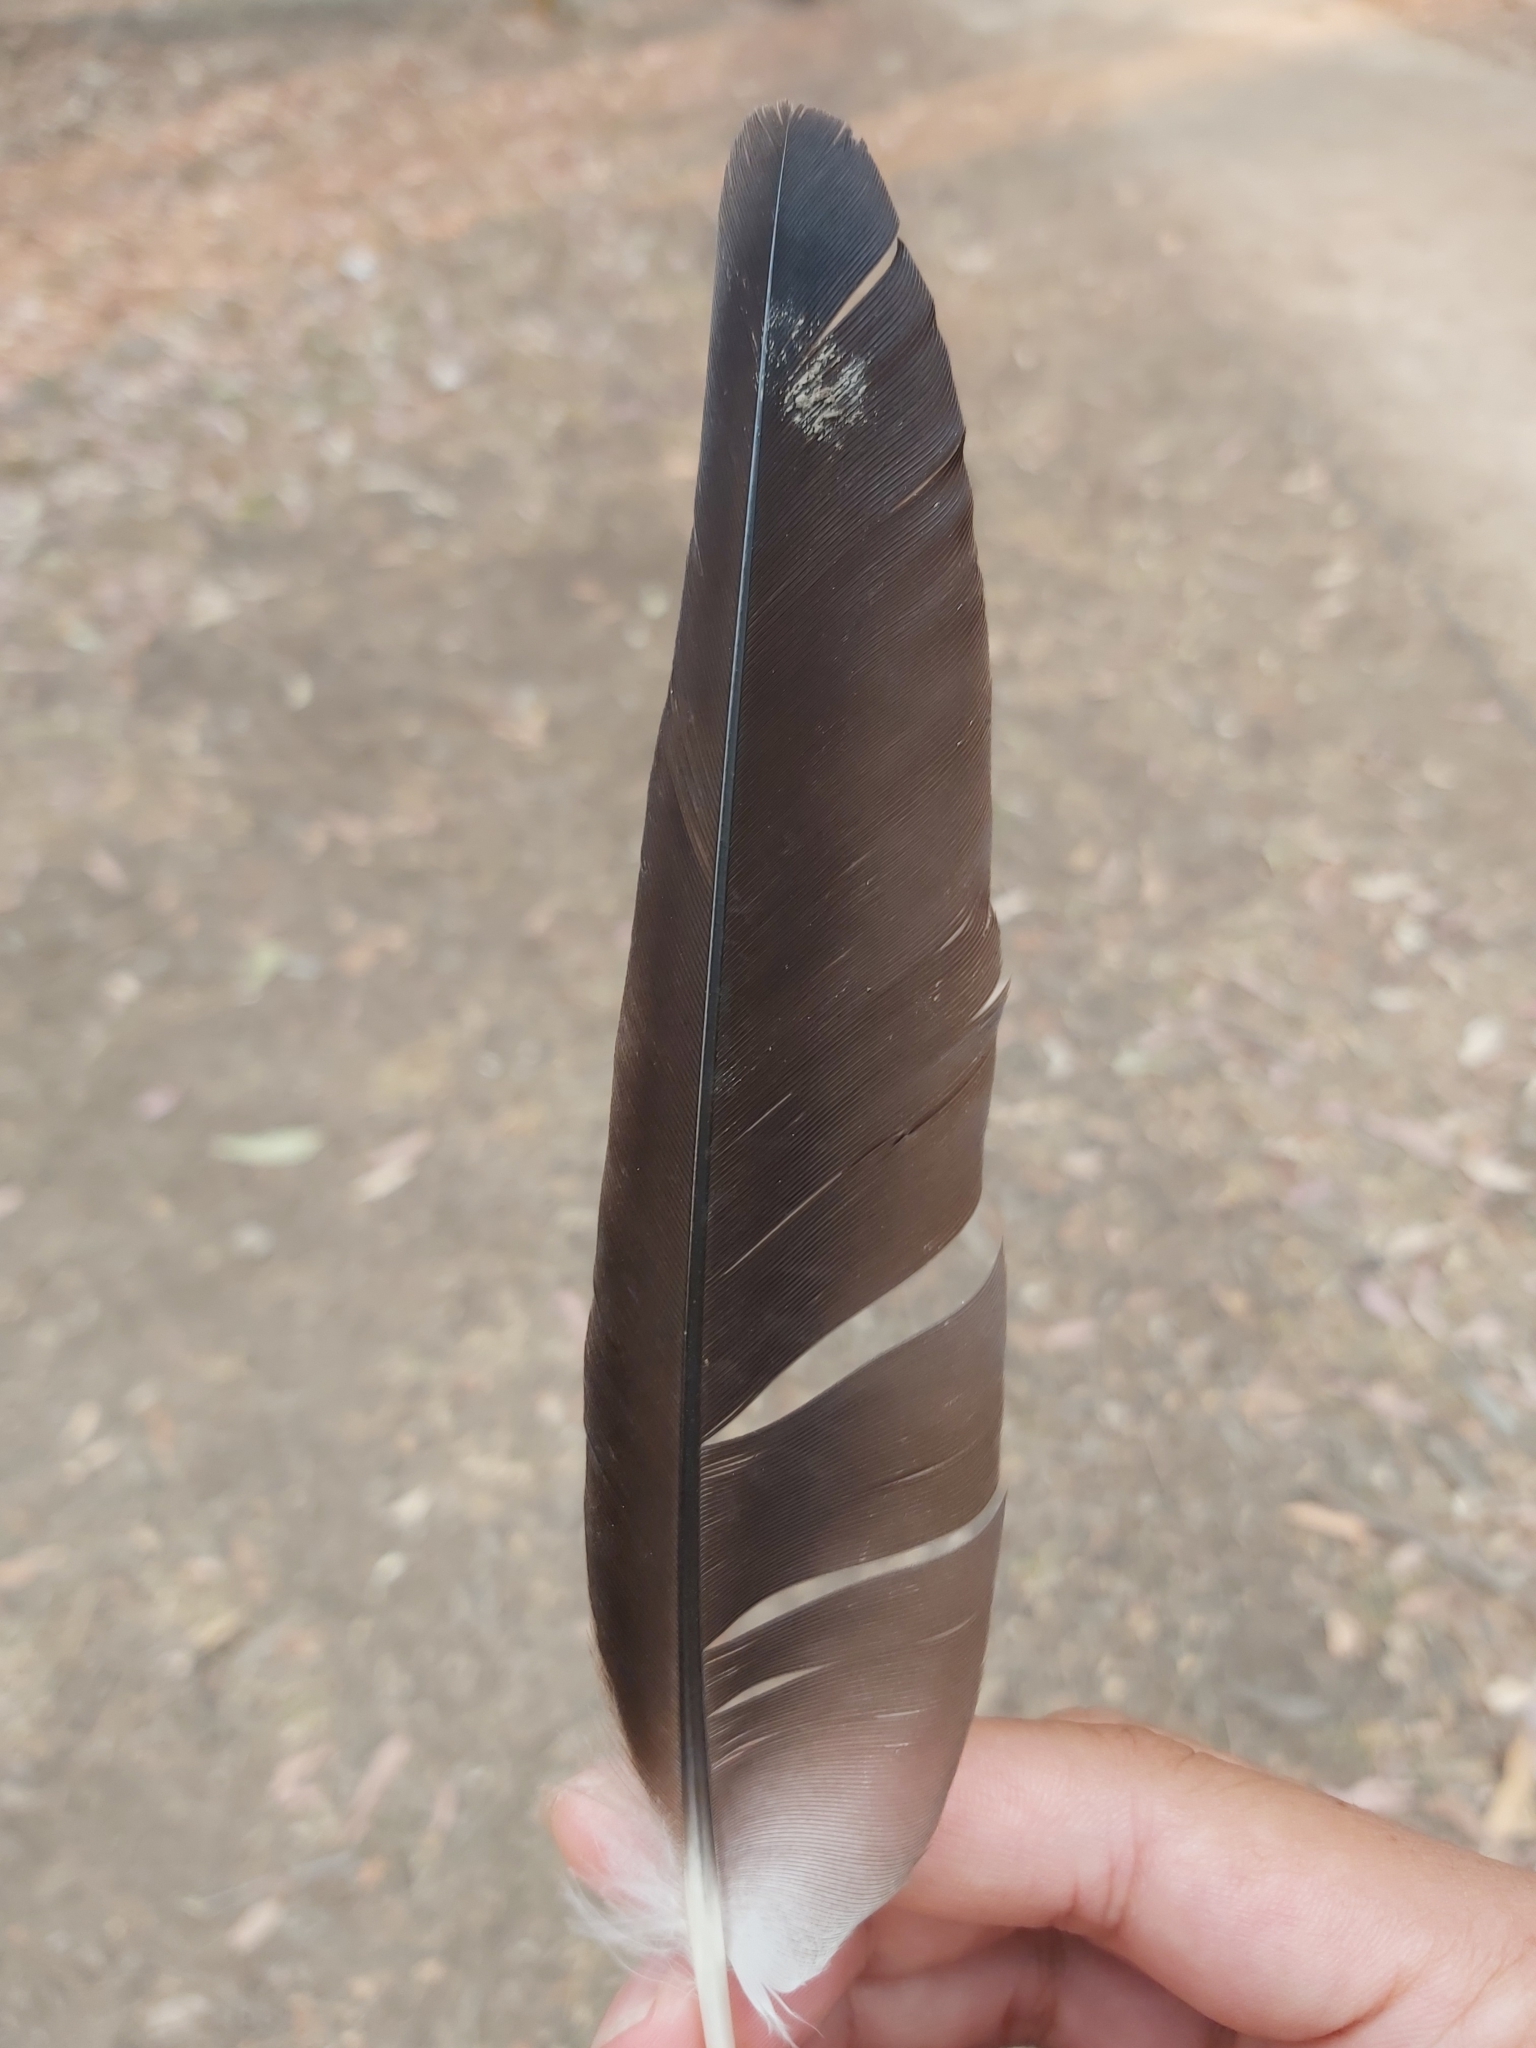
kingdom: Animalia
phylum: Chordata
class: Aves
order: Charadriiformes
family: Charadriidae
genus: Vanellus
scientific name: Vanellus miles
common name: Masked lapwing
